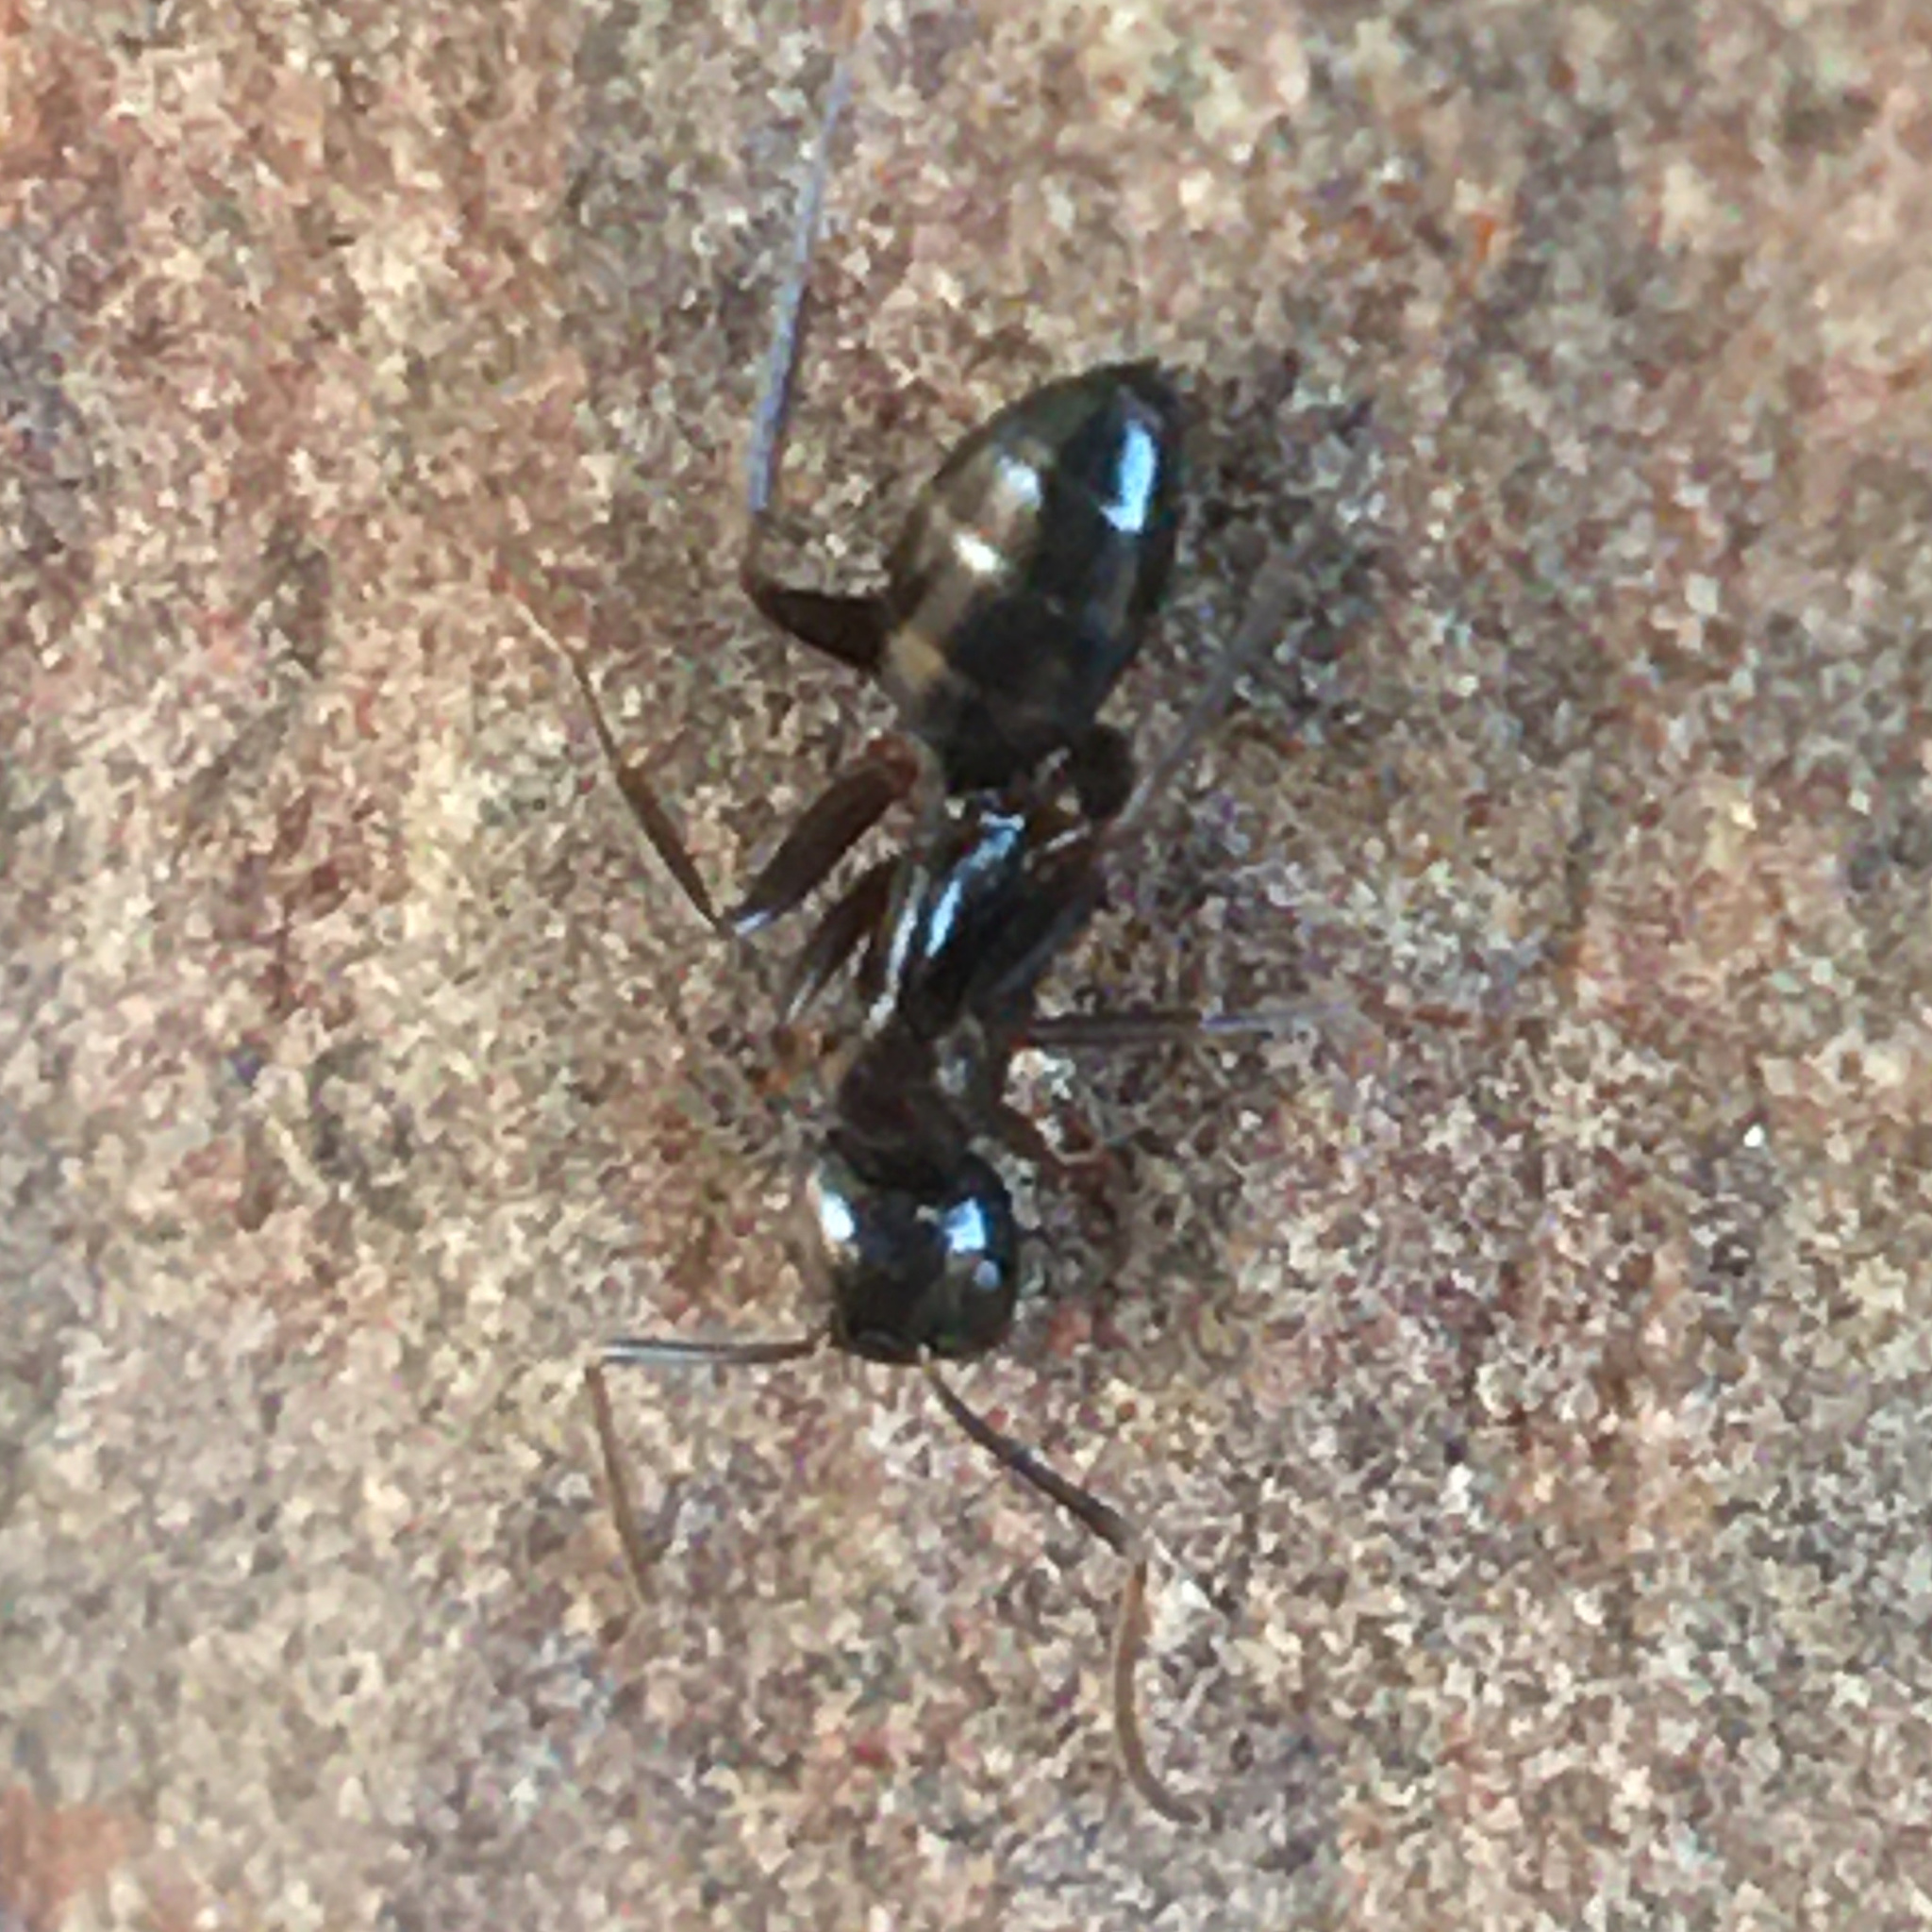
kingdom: Animalia
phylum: Arthropoda
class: Insecta
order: Hymenoptera
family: Formicidae
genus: Camponotus
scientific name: Camponotus nearcticus
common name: Smaller carpenter ant
